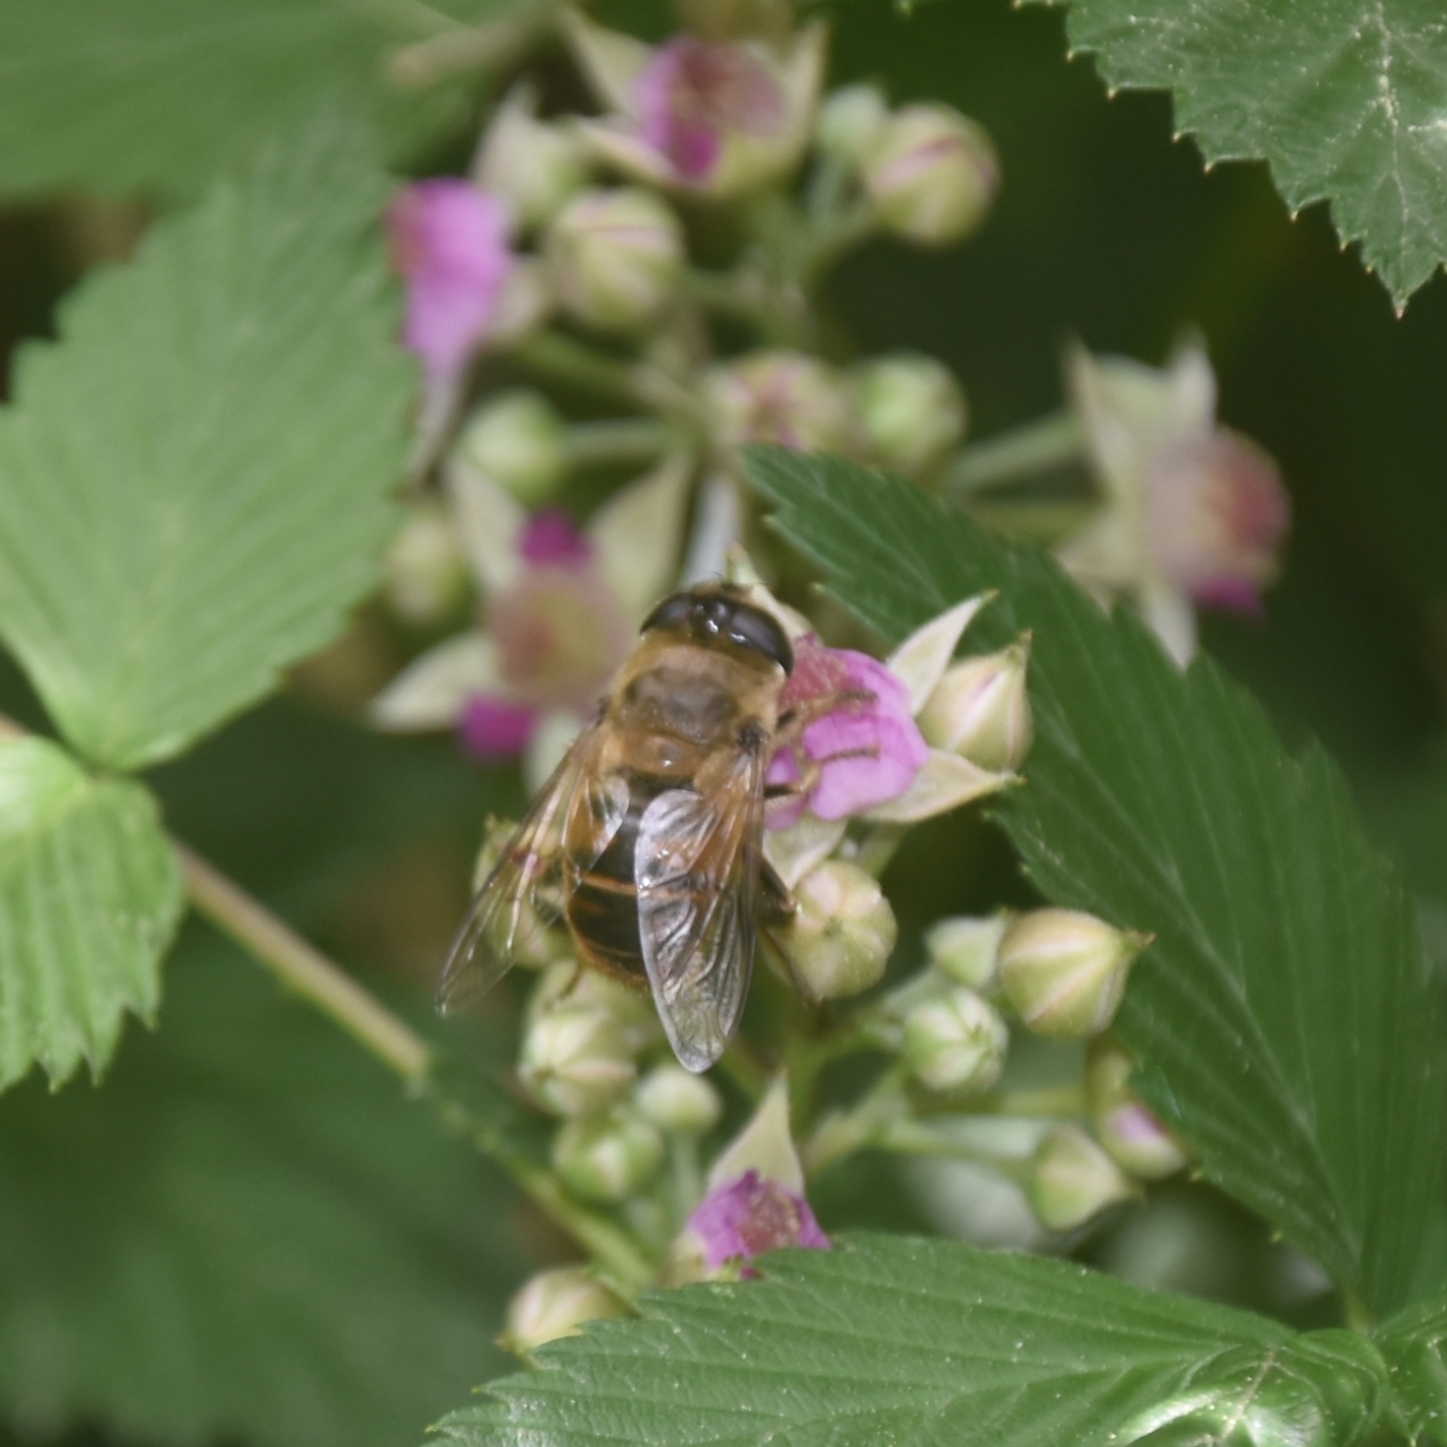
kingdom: Animalia
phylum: Arthropoda
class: Insecta
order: Diptera
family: Syrphidae
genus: Eristalis
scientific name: Eristalis tenax
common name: Drone fly
